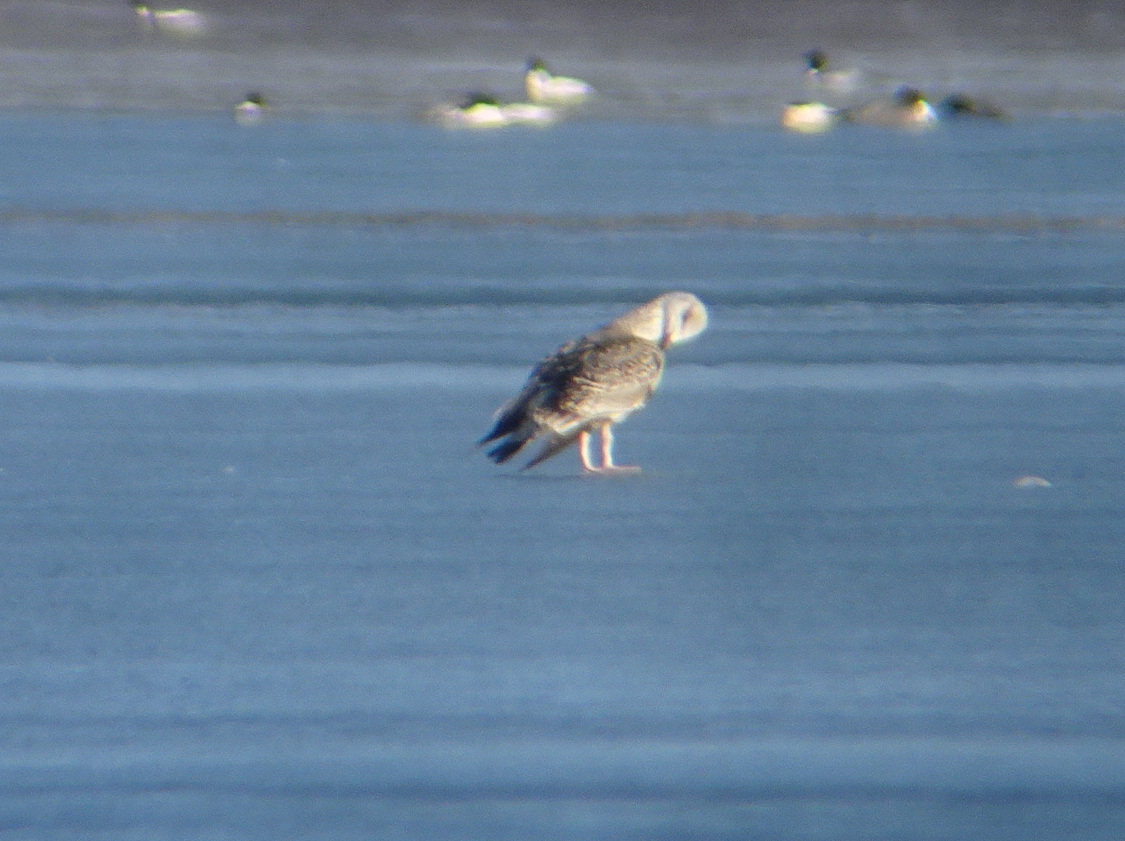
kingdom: Animalia
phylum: Chordata
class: Aves
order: Charadriiformes
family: Laridae
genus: Larus
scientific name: Larus marinus
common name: Great black-backed gull
